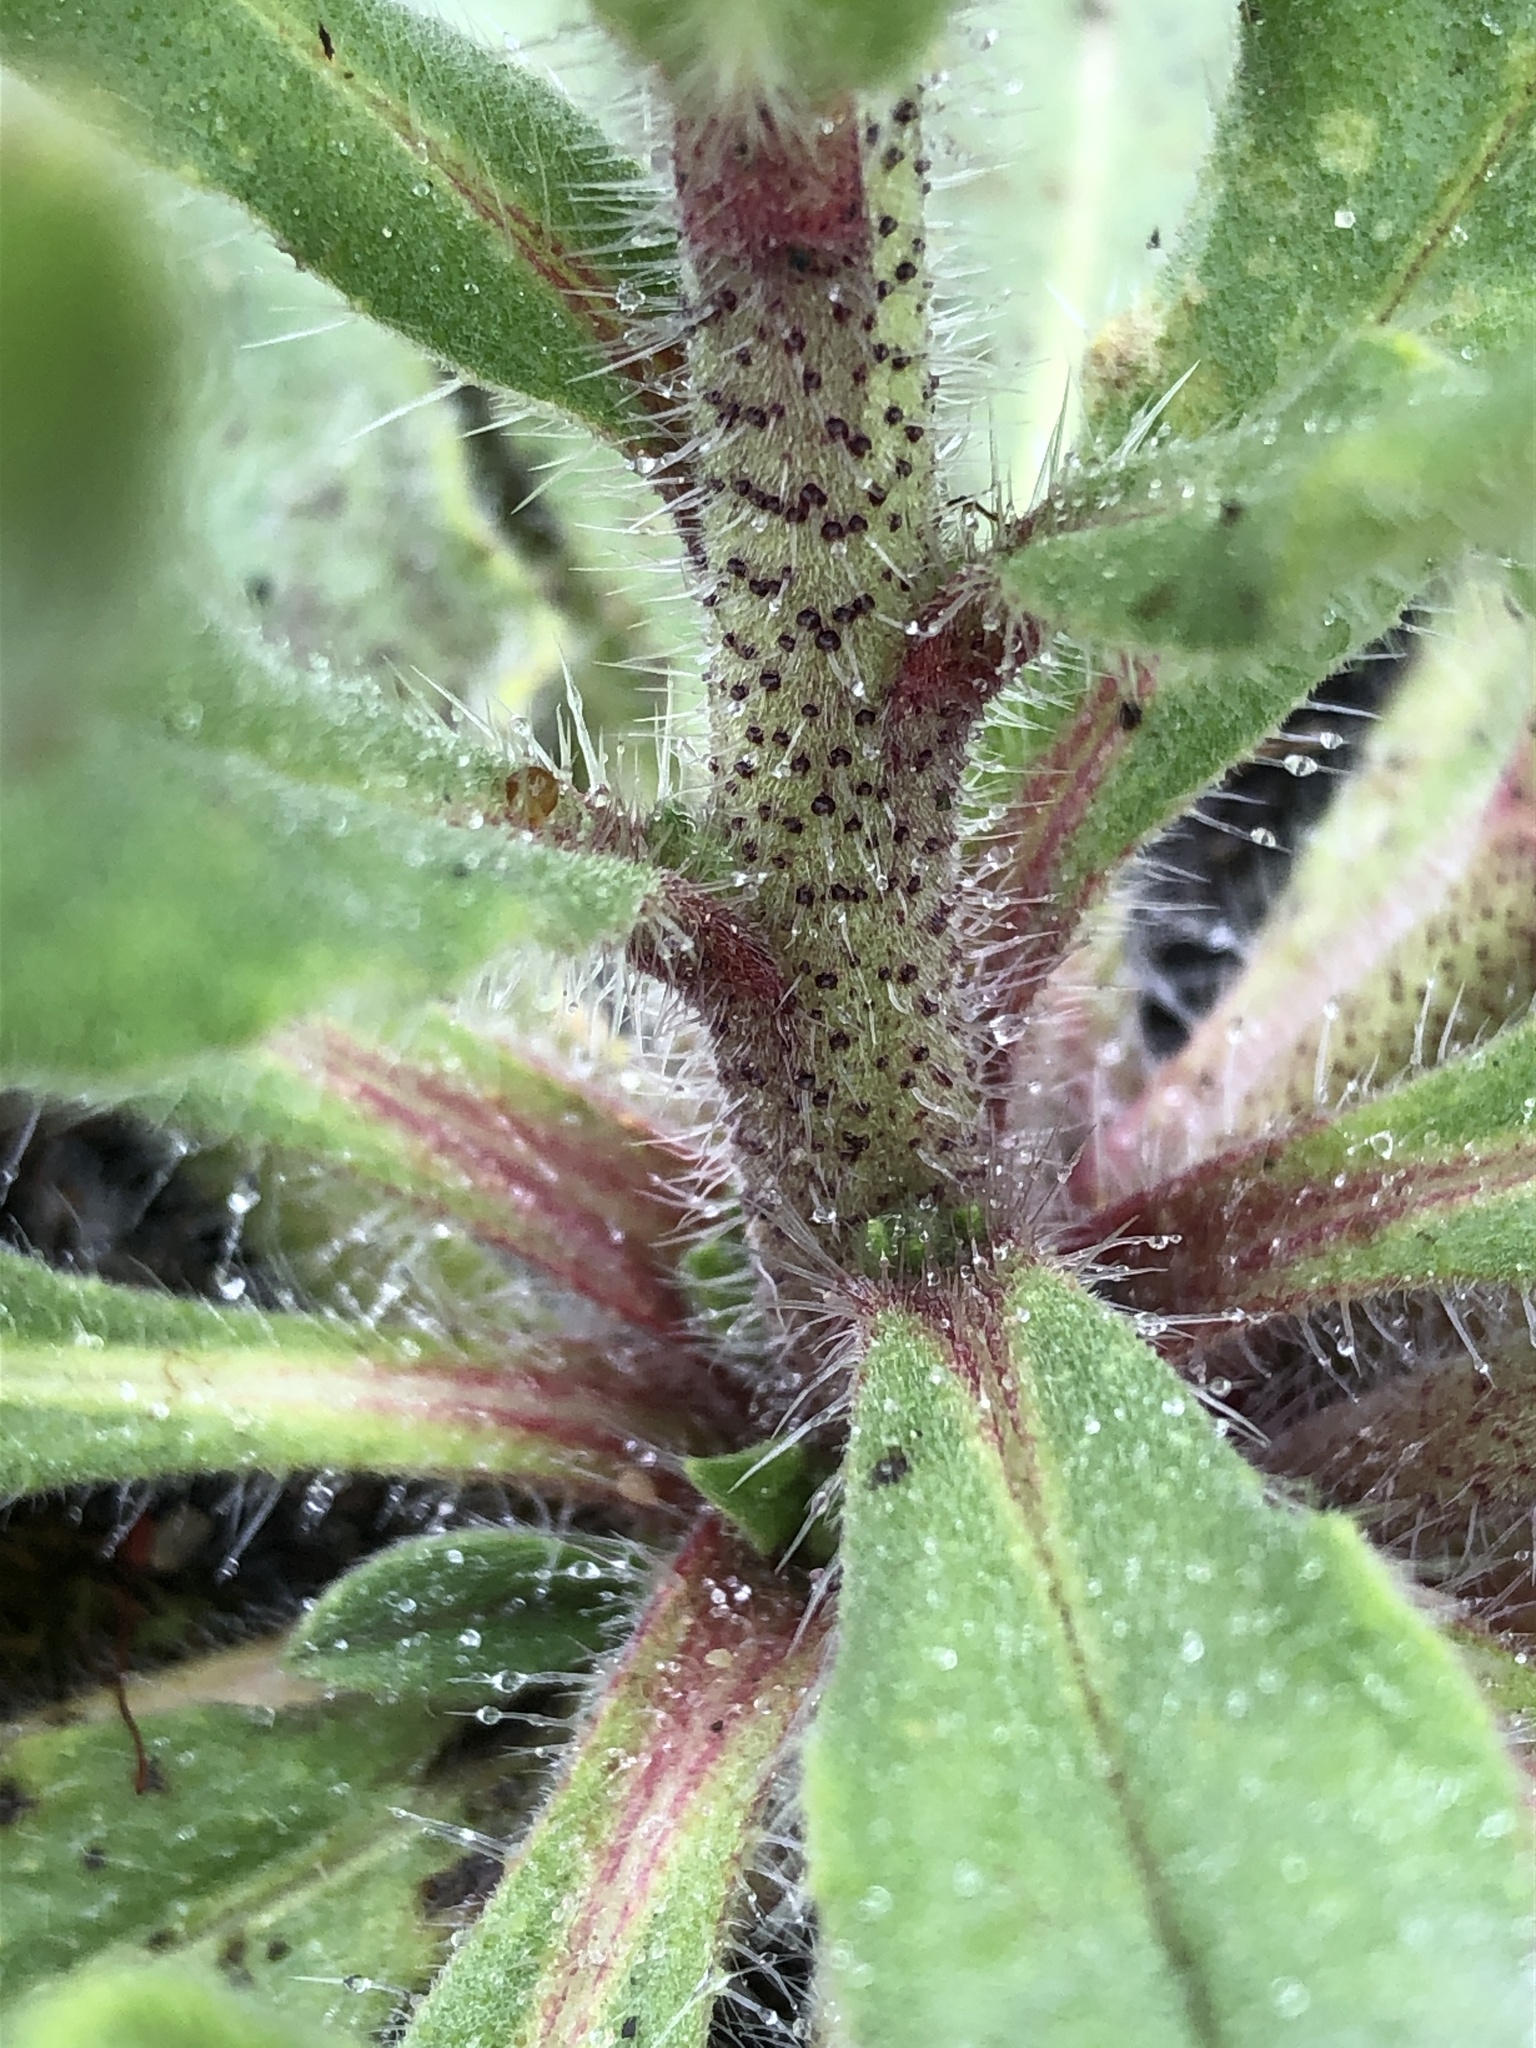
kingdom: Plantae
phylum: Tracheophyta
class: Magnoliopsida
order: Boraginales
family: Boraginaceae
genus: Echium
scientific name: Echium vulgare
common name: Common viper's bugloss
